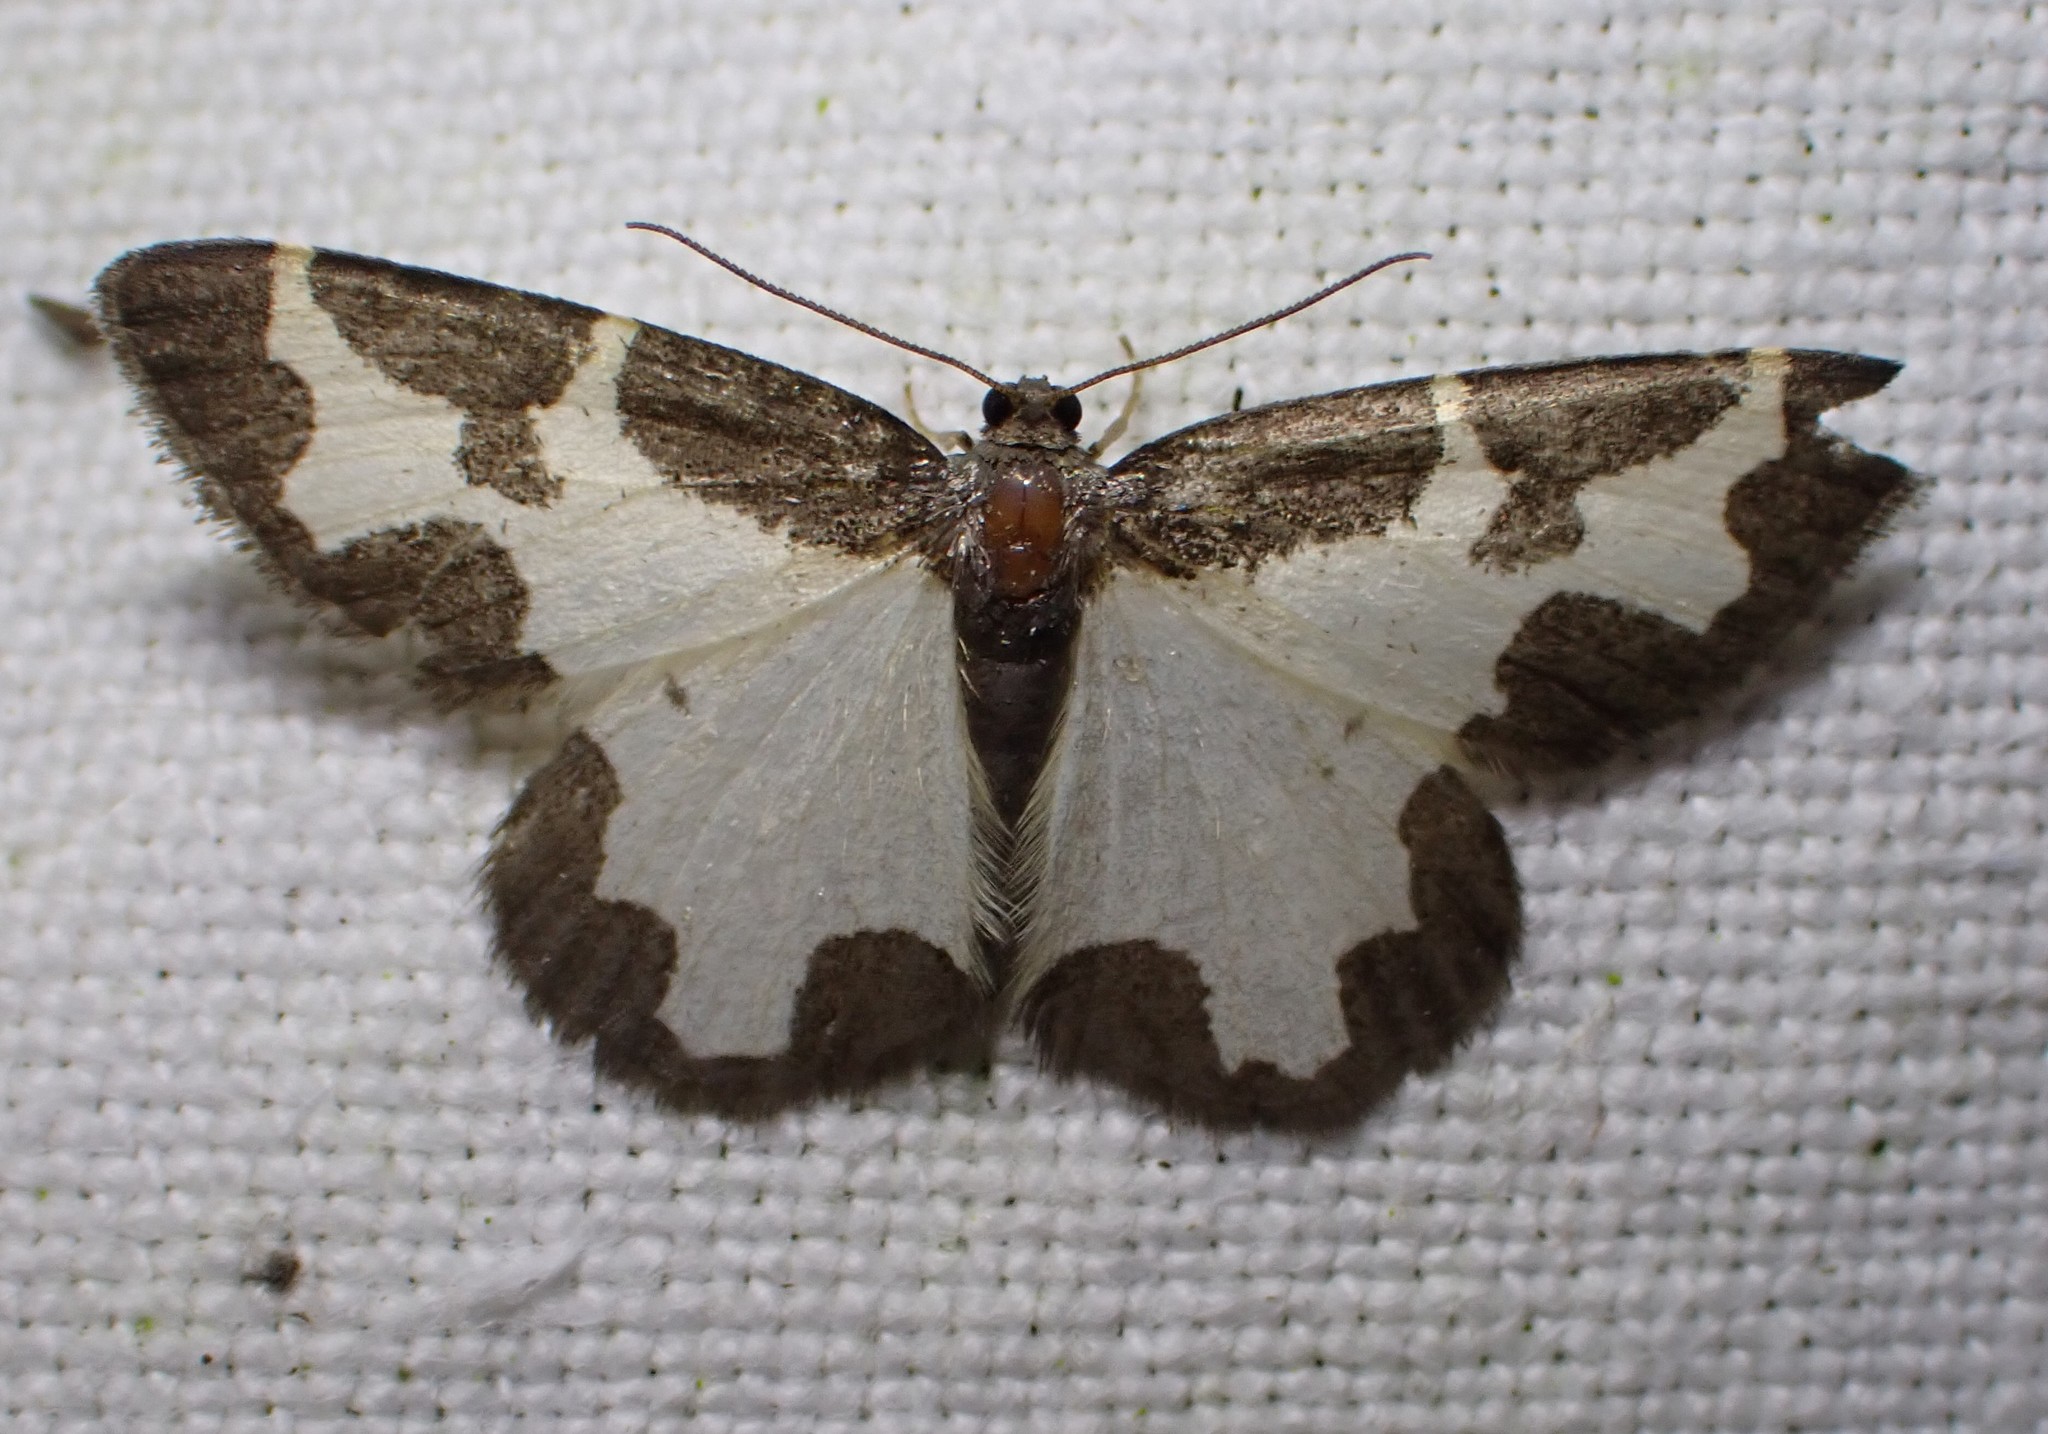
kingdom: Animalia
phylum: Arthropoda
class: Insecta
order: Lepidoptera
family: Geometridae
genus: Lomaspilis
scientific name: Lomaspilis marginata
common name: Clouded border
